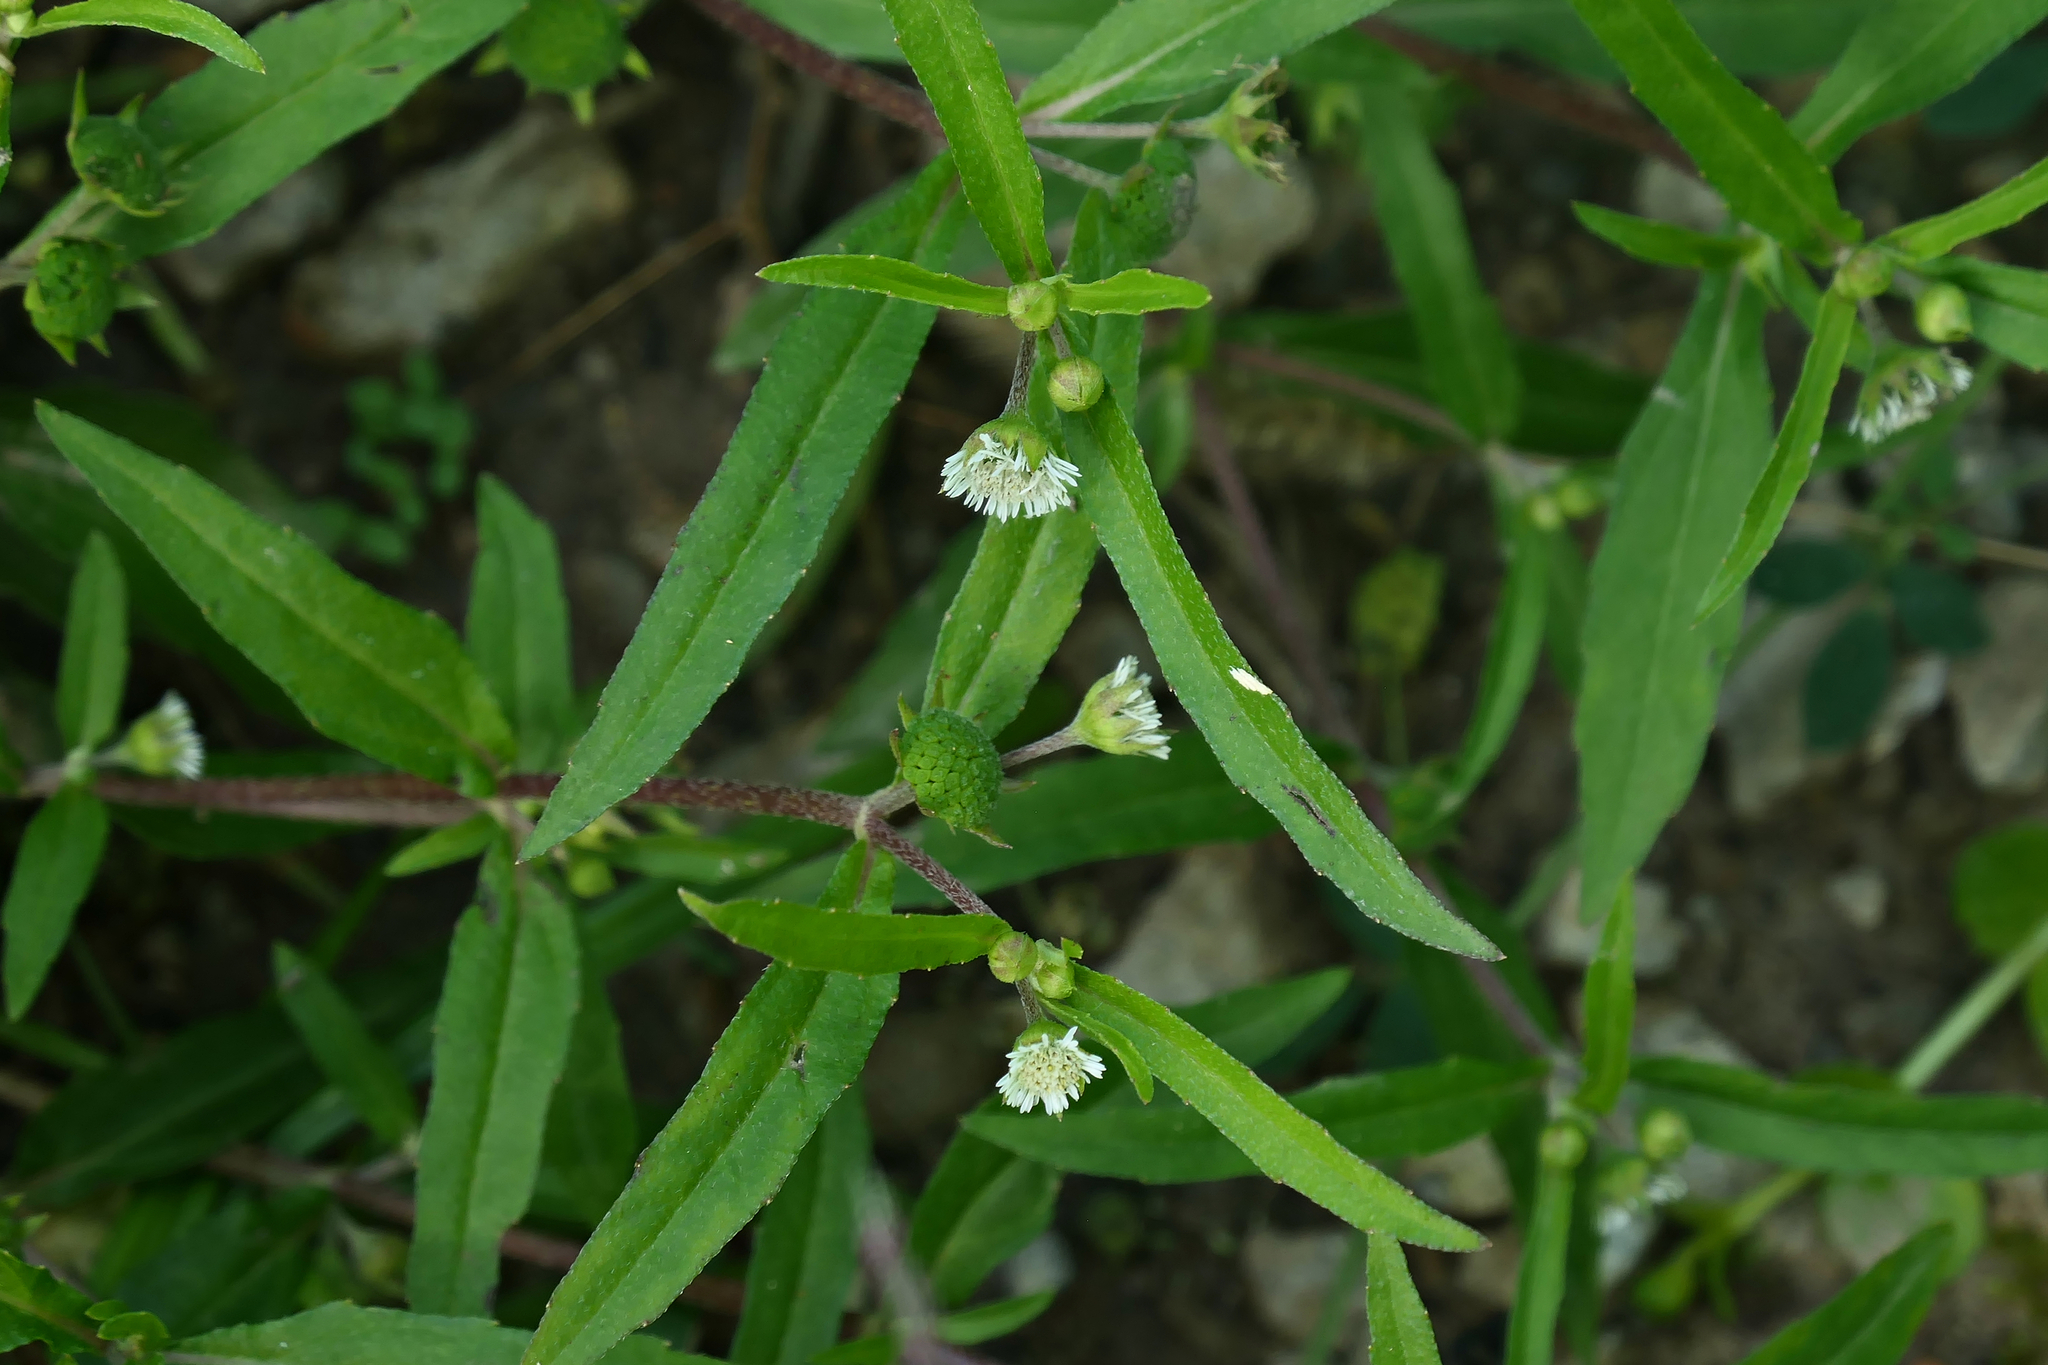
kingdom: Plantae
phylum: Tracheophyta
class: Magnoliopsida
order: Asterales
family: Asteraceae
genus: Eclipta
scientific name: Eclipta prostrata
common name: False daisy
